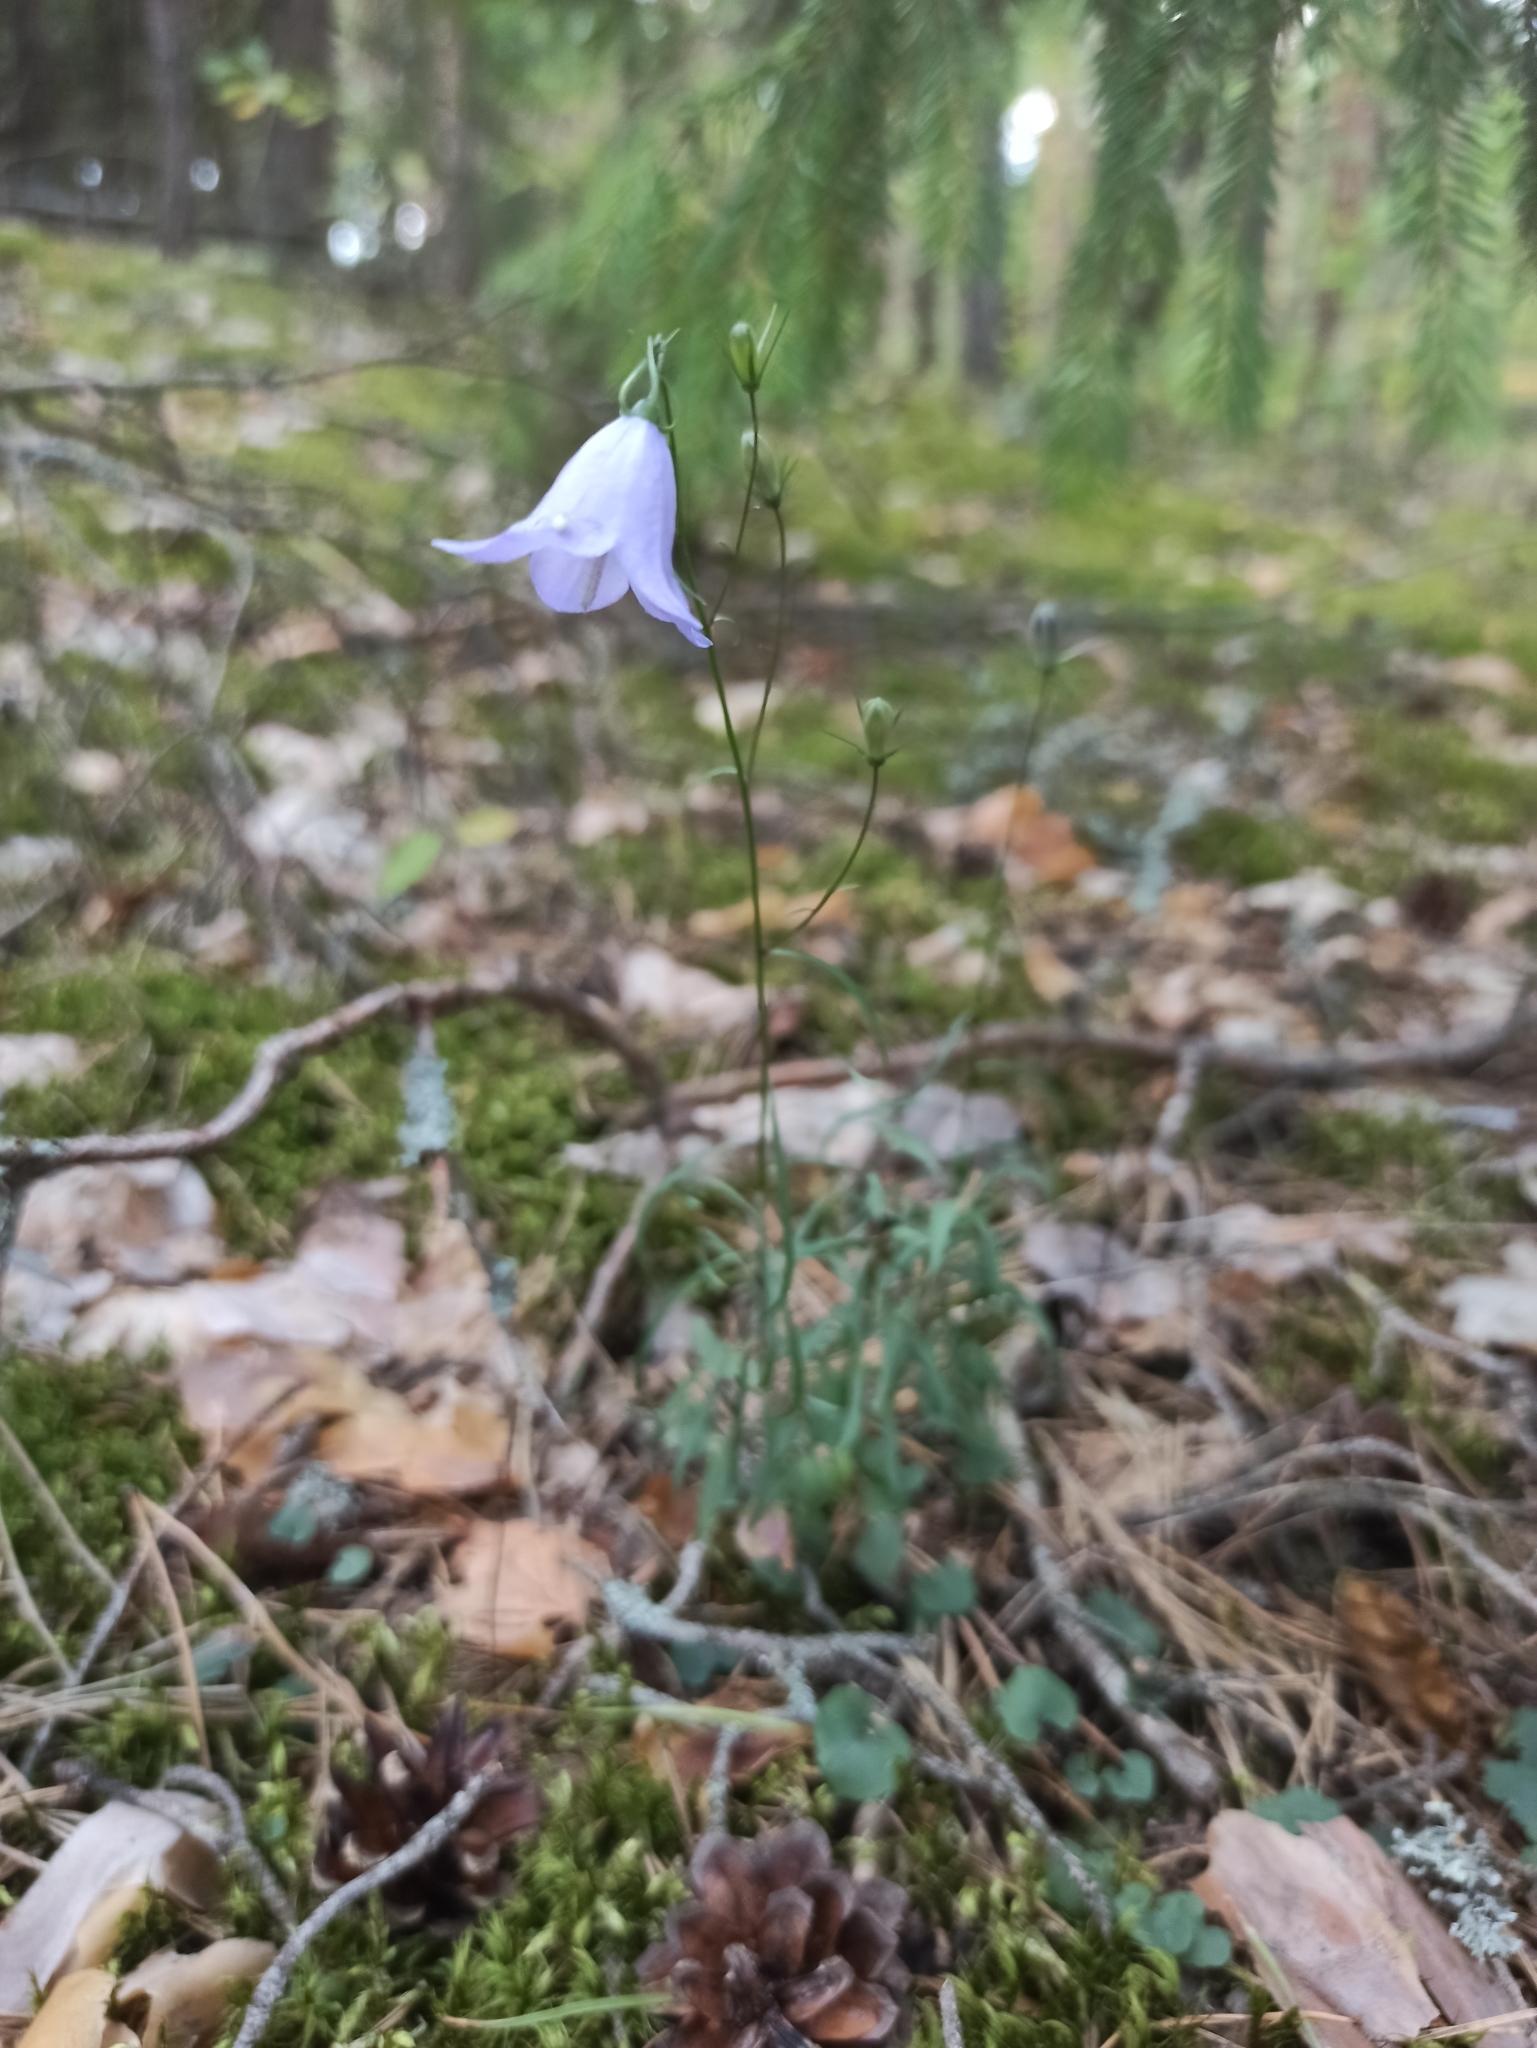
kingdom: Plantae
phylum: Tracheophyta
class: Magnoliopsida
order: Asterales
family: Campanulaceae
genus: Campanula
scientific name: Campanula rotundifolia
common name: Harebell
